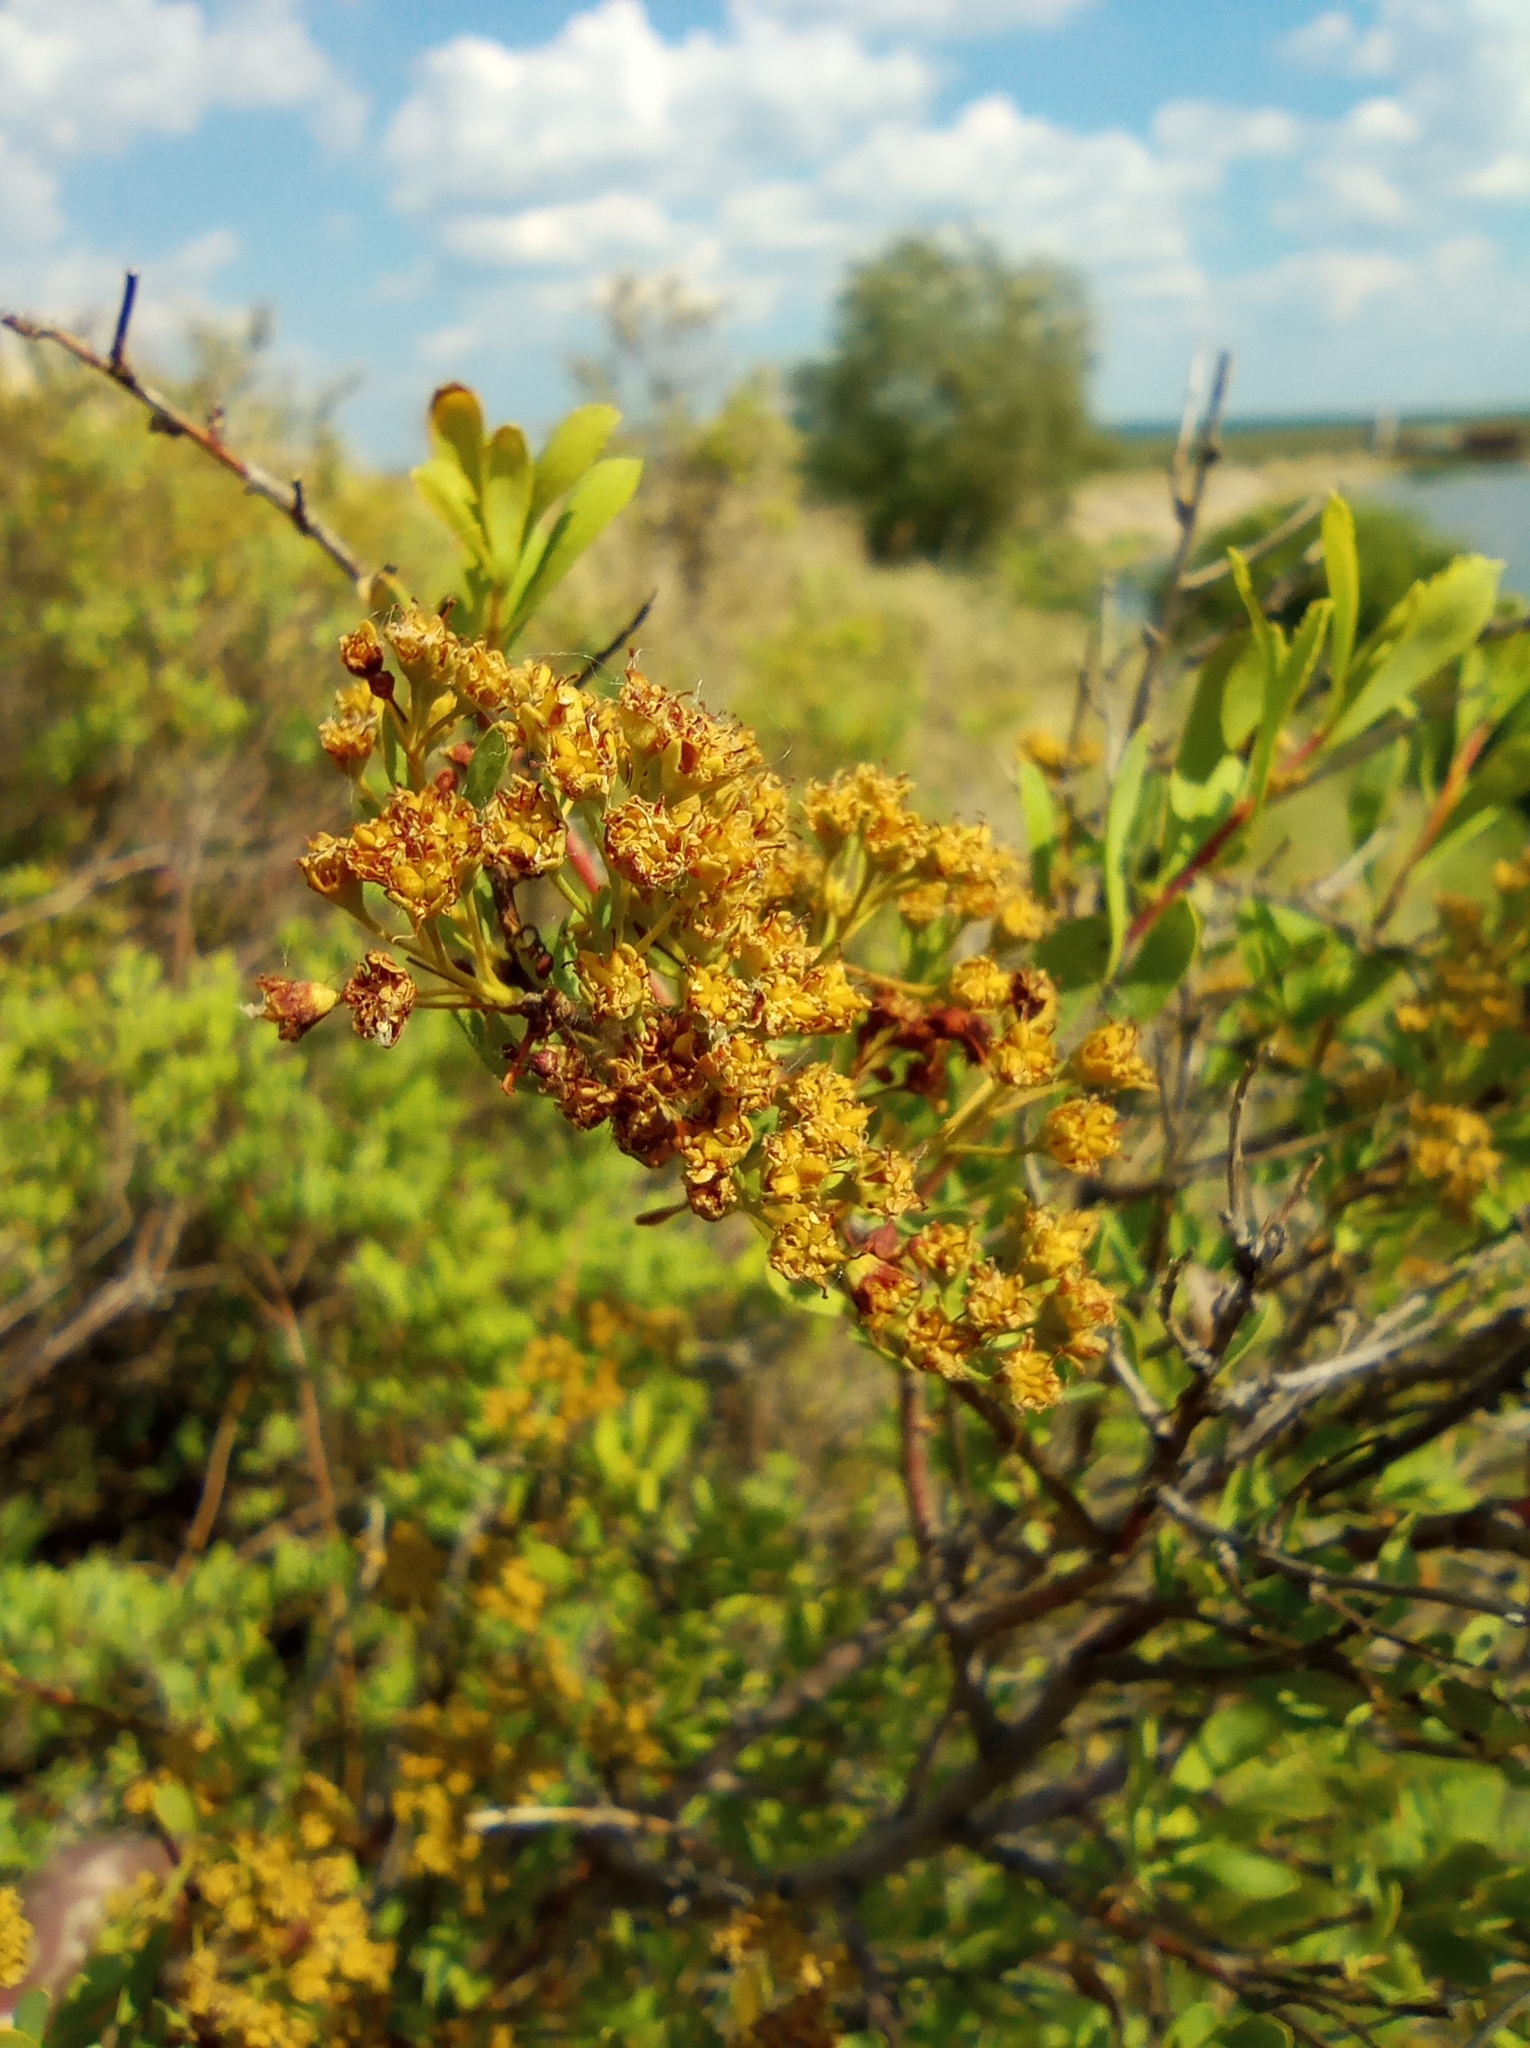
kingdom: Plantae
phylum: Tracheophyta
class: Magnoliopsida
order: Rosales
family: Rosaceae
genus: Spiraea
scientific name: Spiraea crenata
